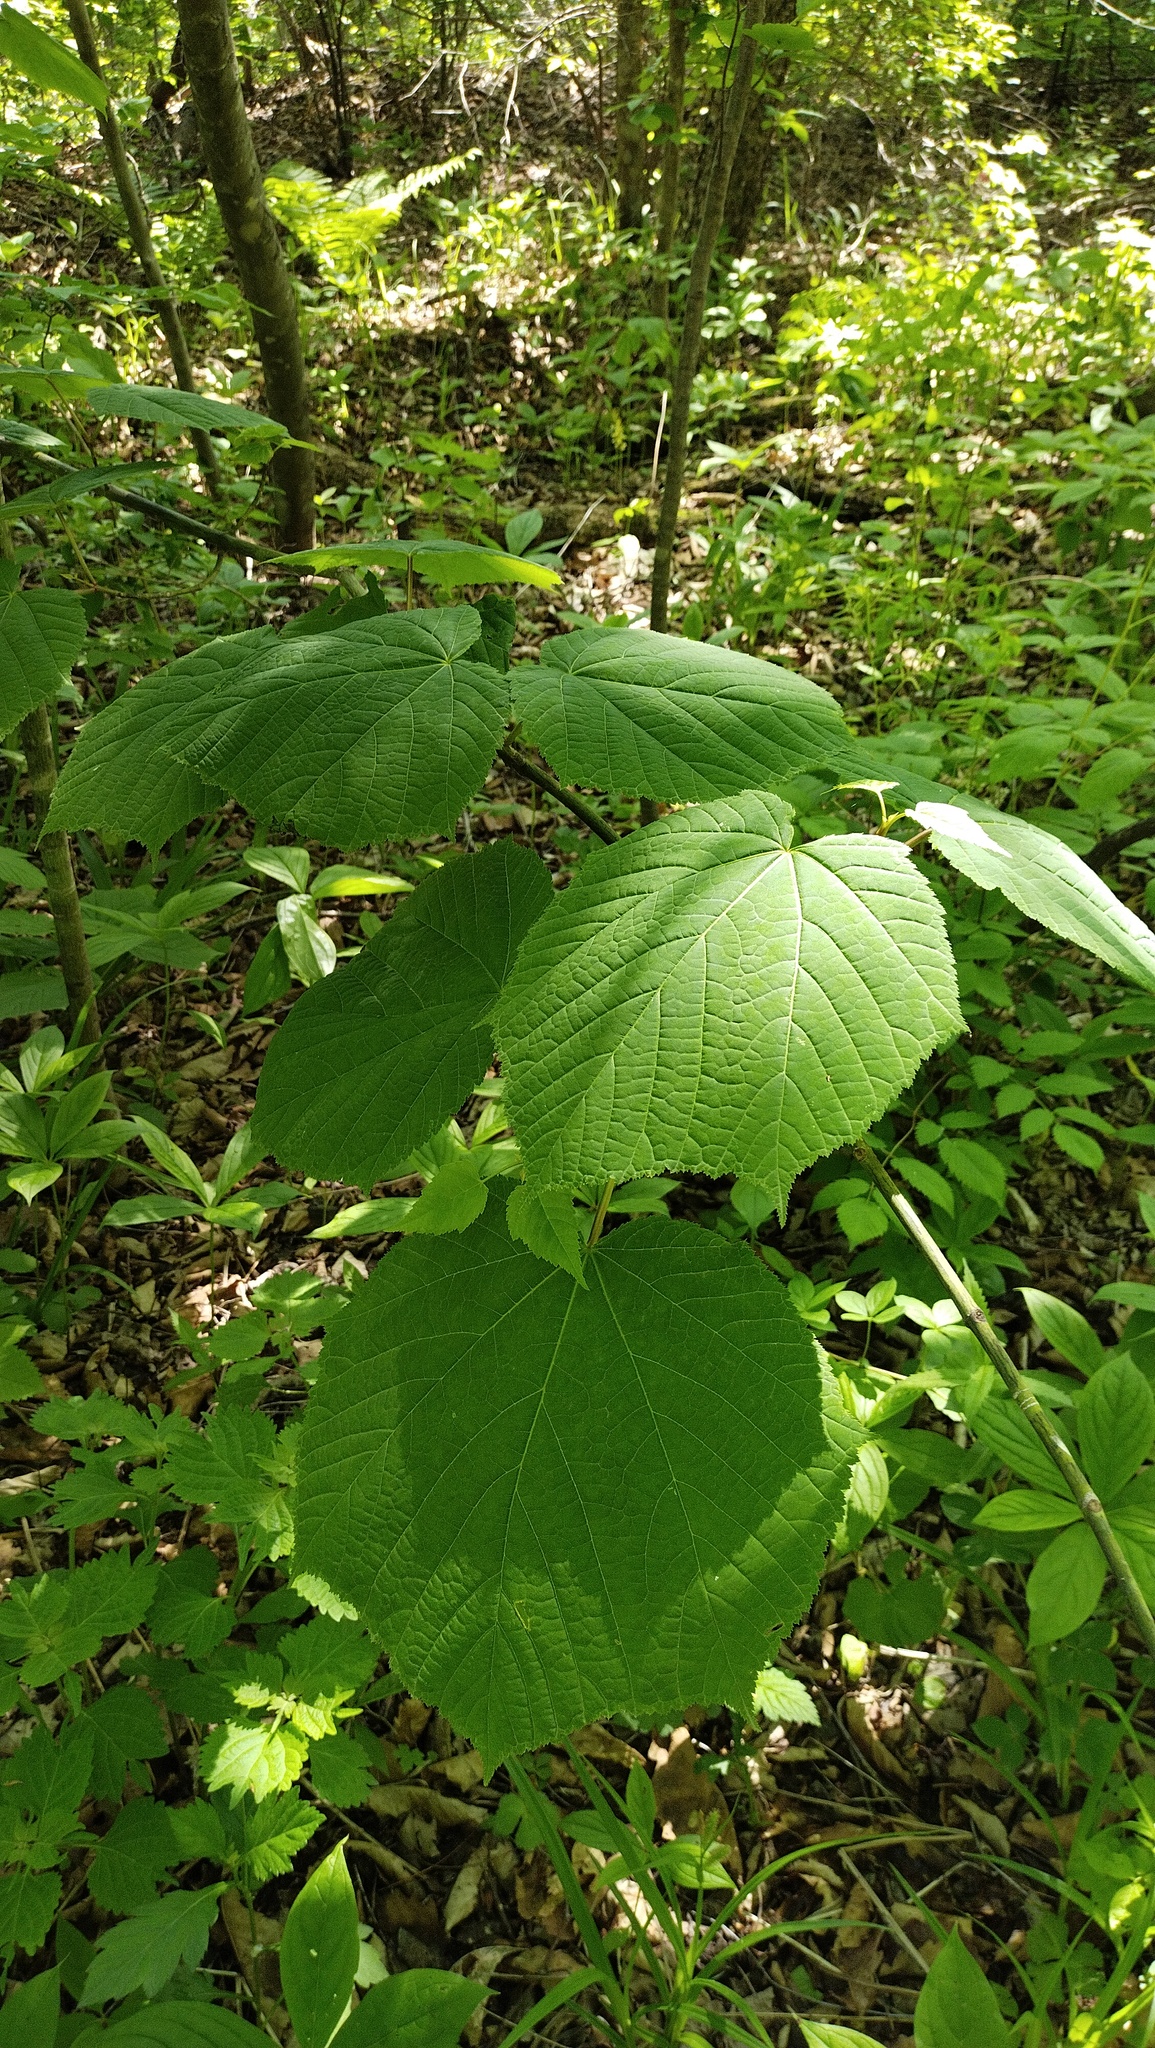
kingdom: Plantae
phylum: Tracheophyta
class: Magnoliopsida
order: Sapindales
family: Sapindaceae
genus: Acer
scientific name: Acer tegmentosum
